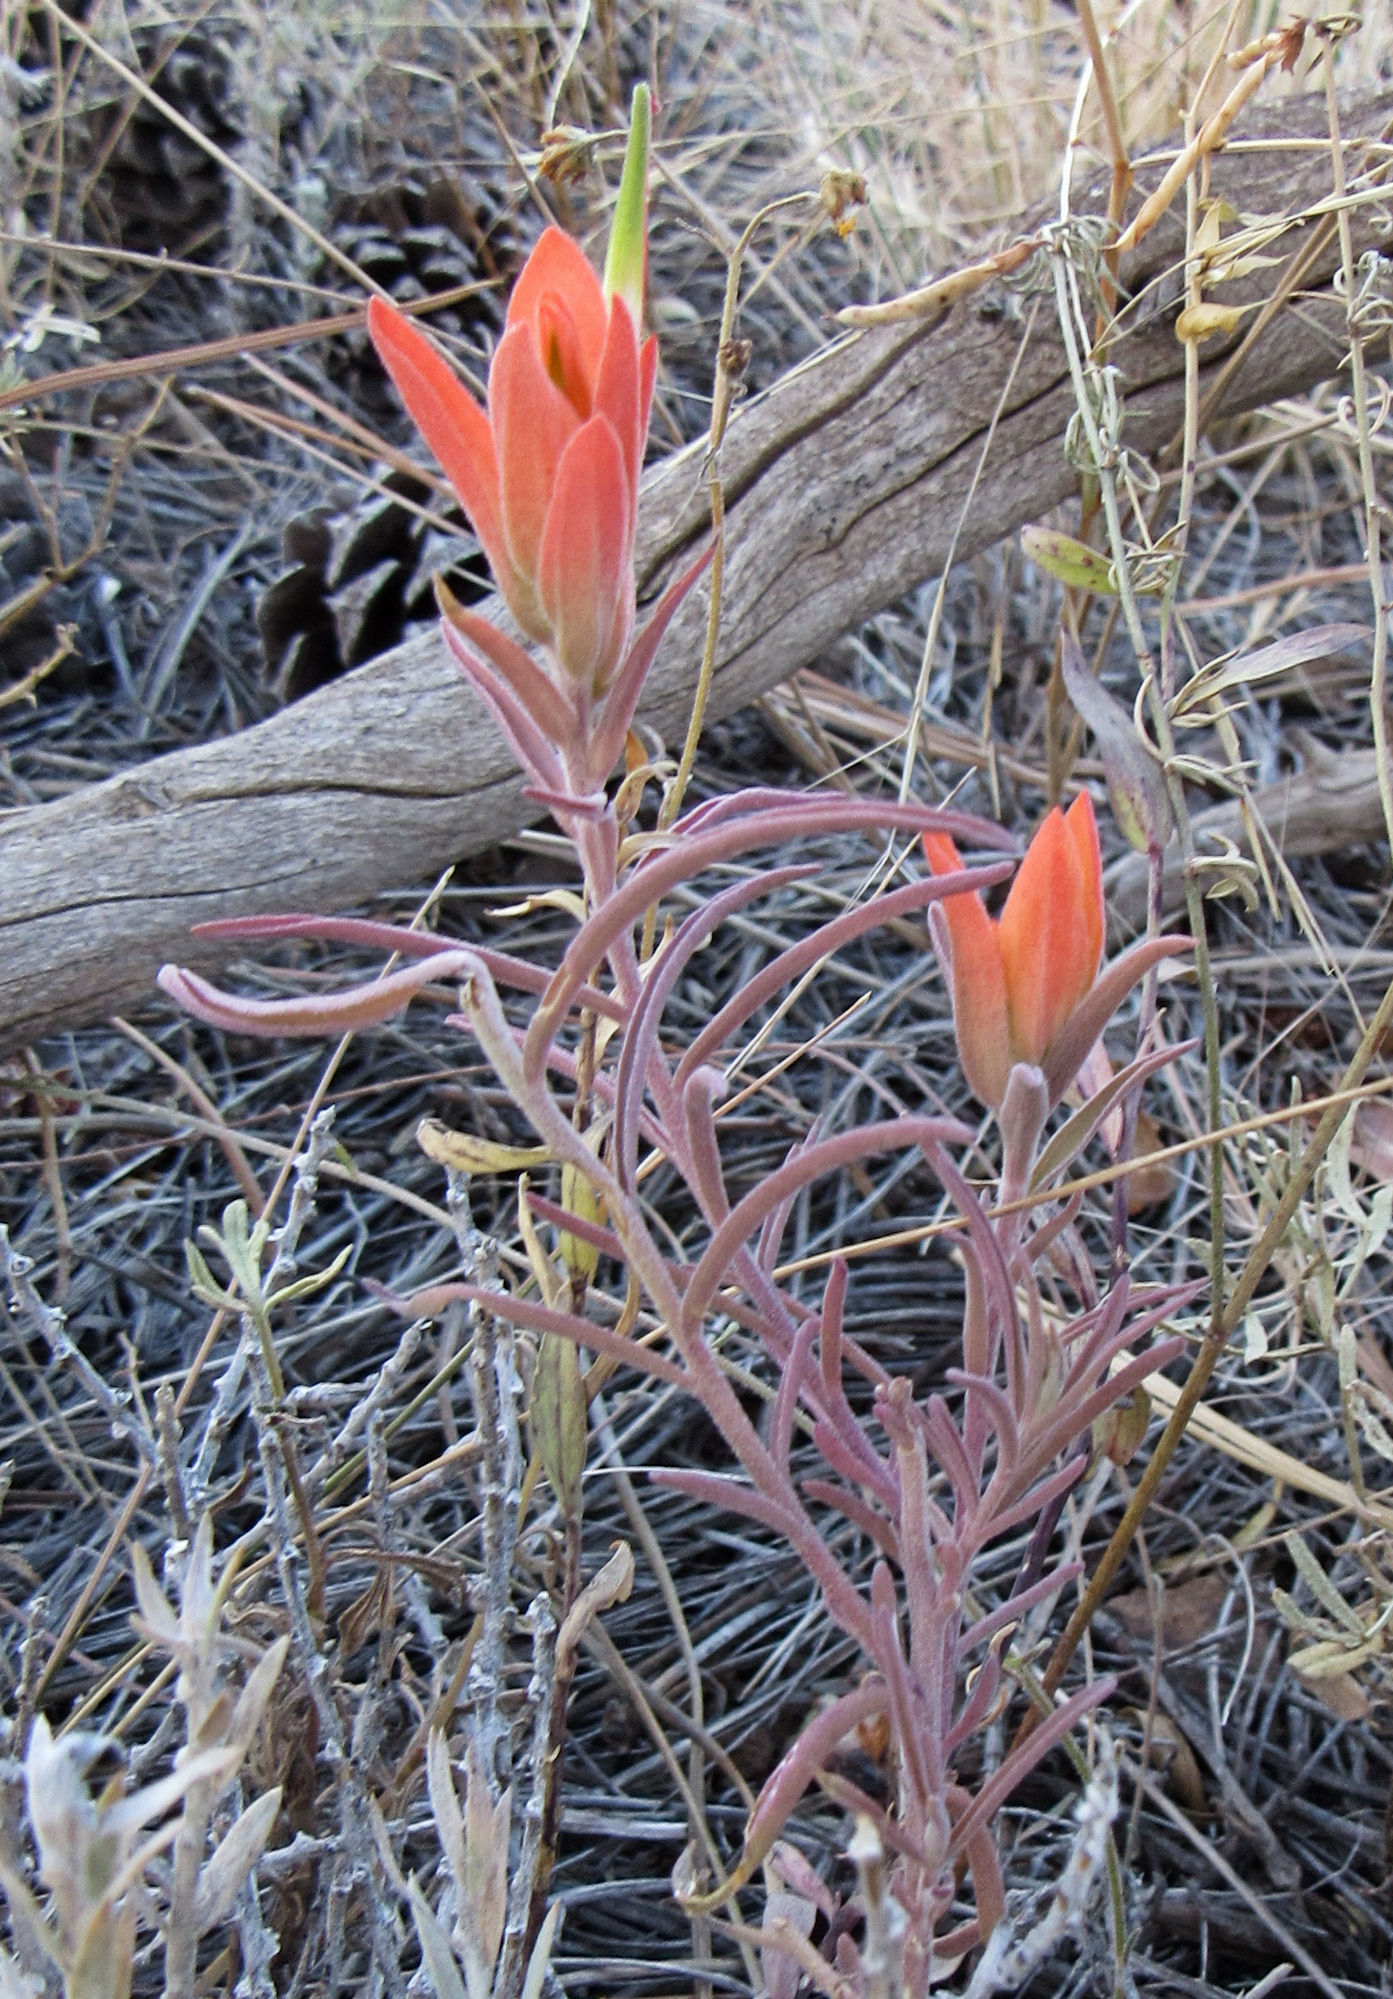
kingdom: Plantae
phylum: Tracheophyta
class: Magnoliopsida
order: Lamiales
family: Orobanchaceae
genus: Castilleja
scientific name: Castilleja integra
